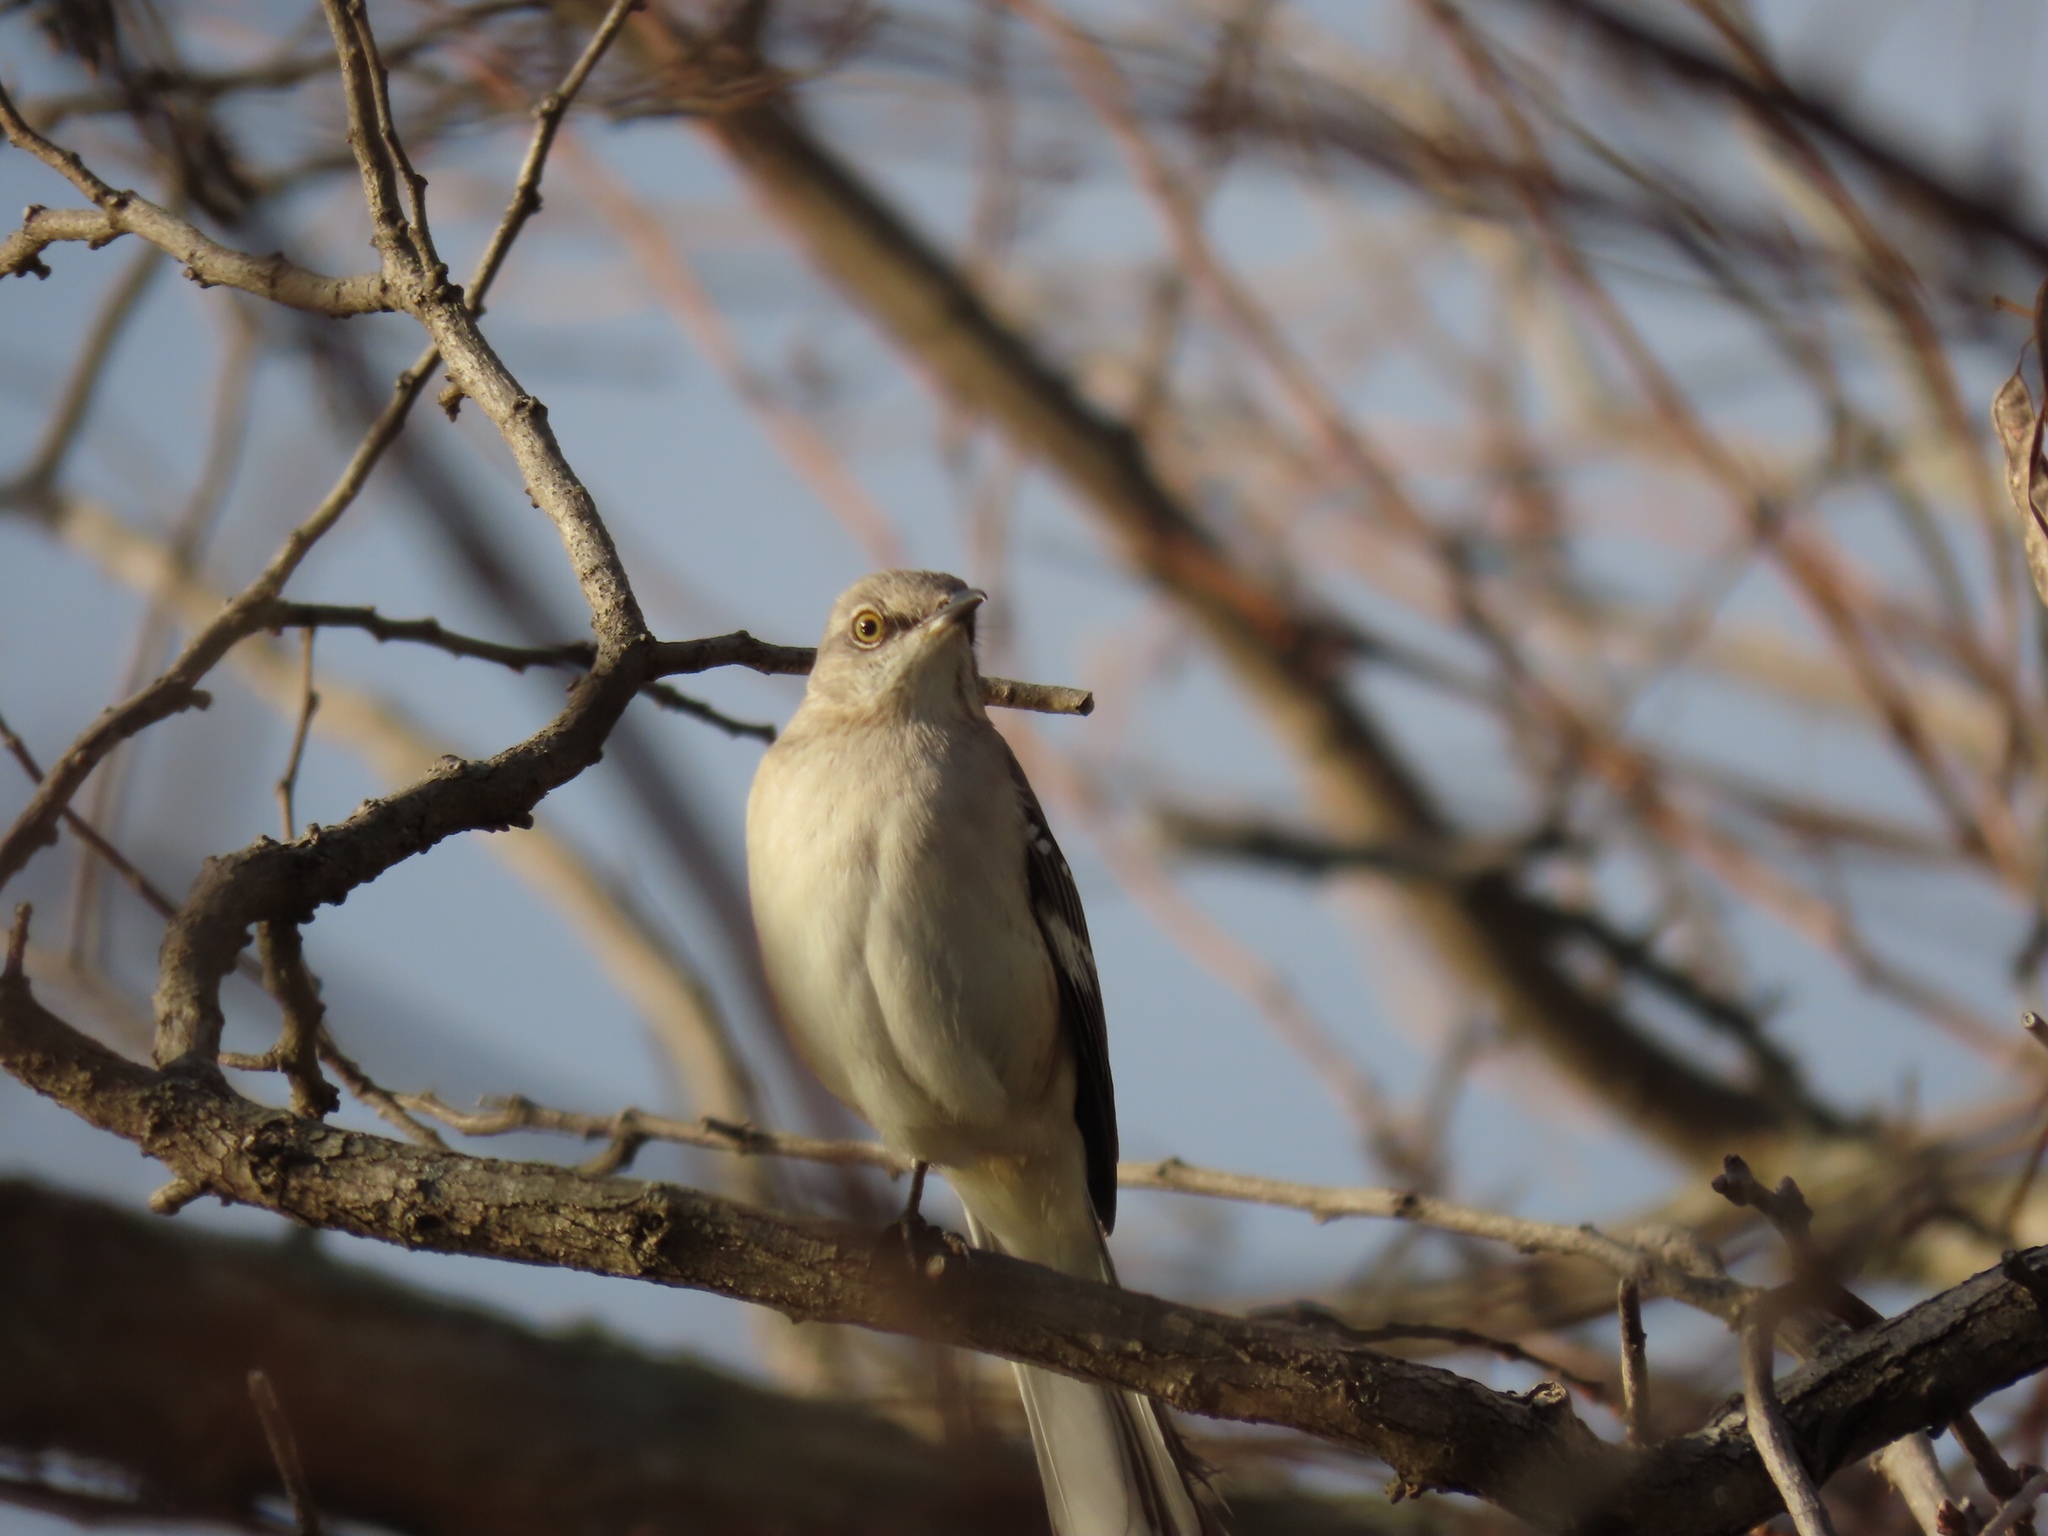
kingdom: Animalia
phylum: Chordata
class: Aves
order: Passeriformes
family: Mimidae
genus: Mimus
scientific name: Mimus polyglottos
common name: Northern mockingbird
